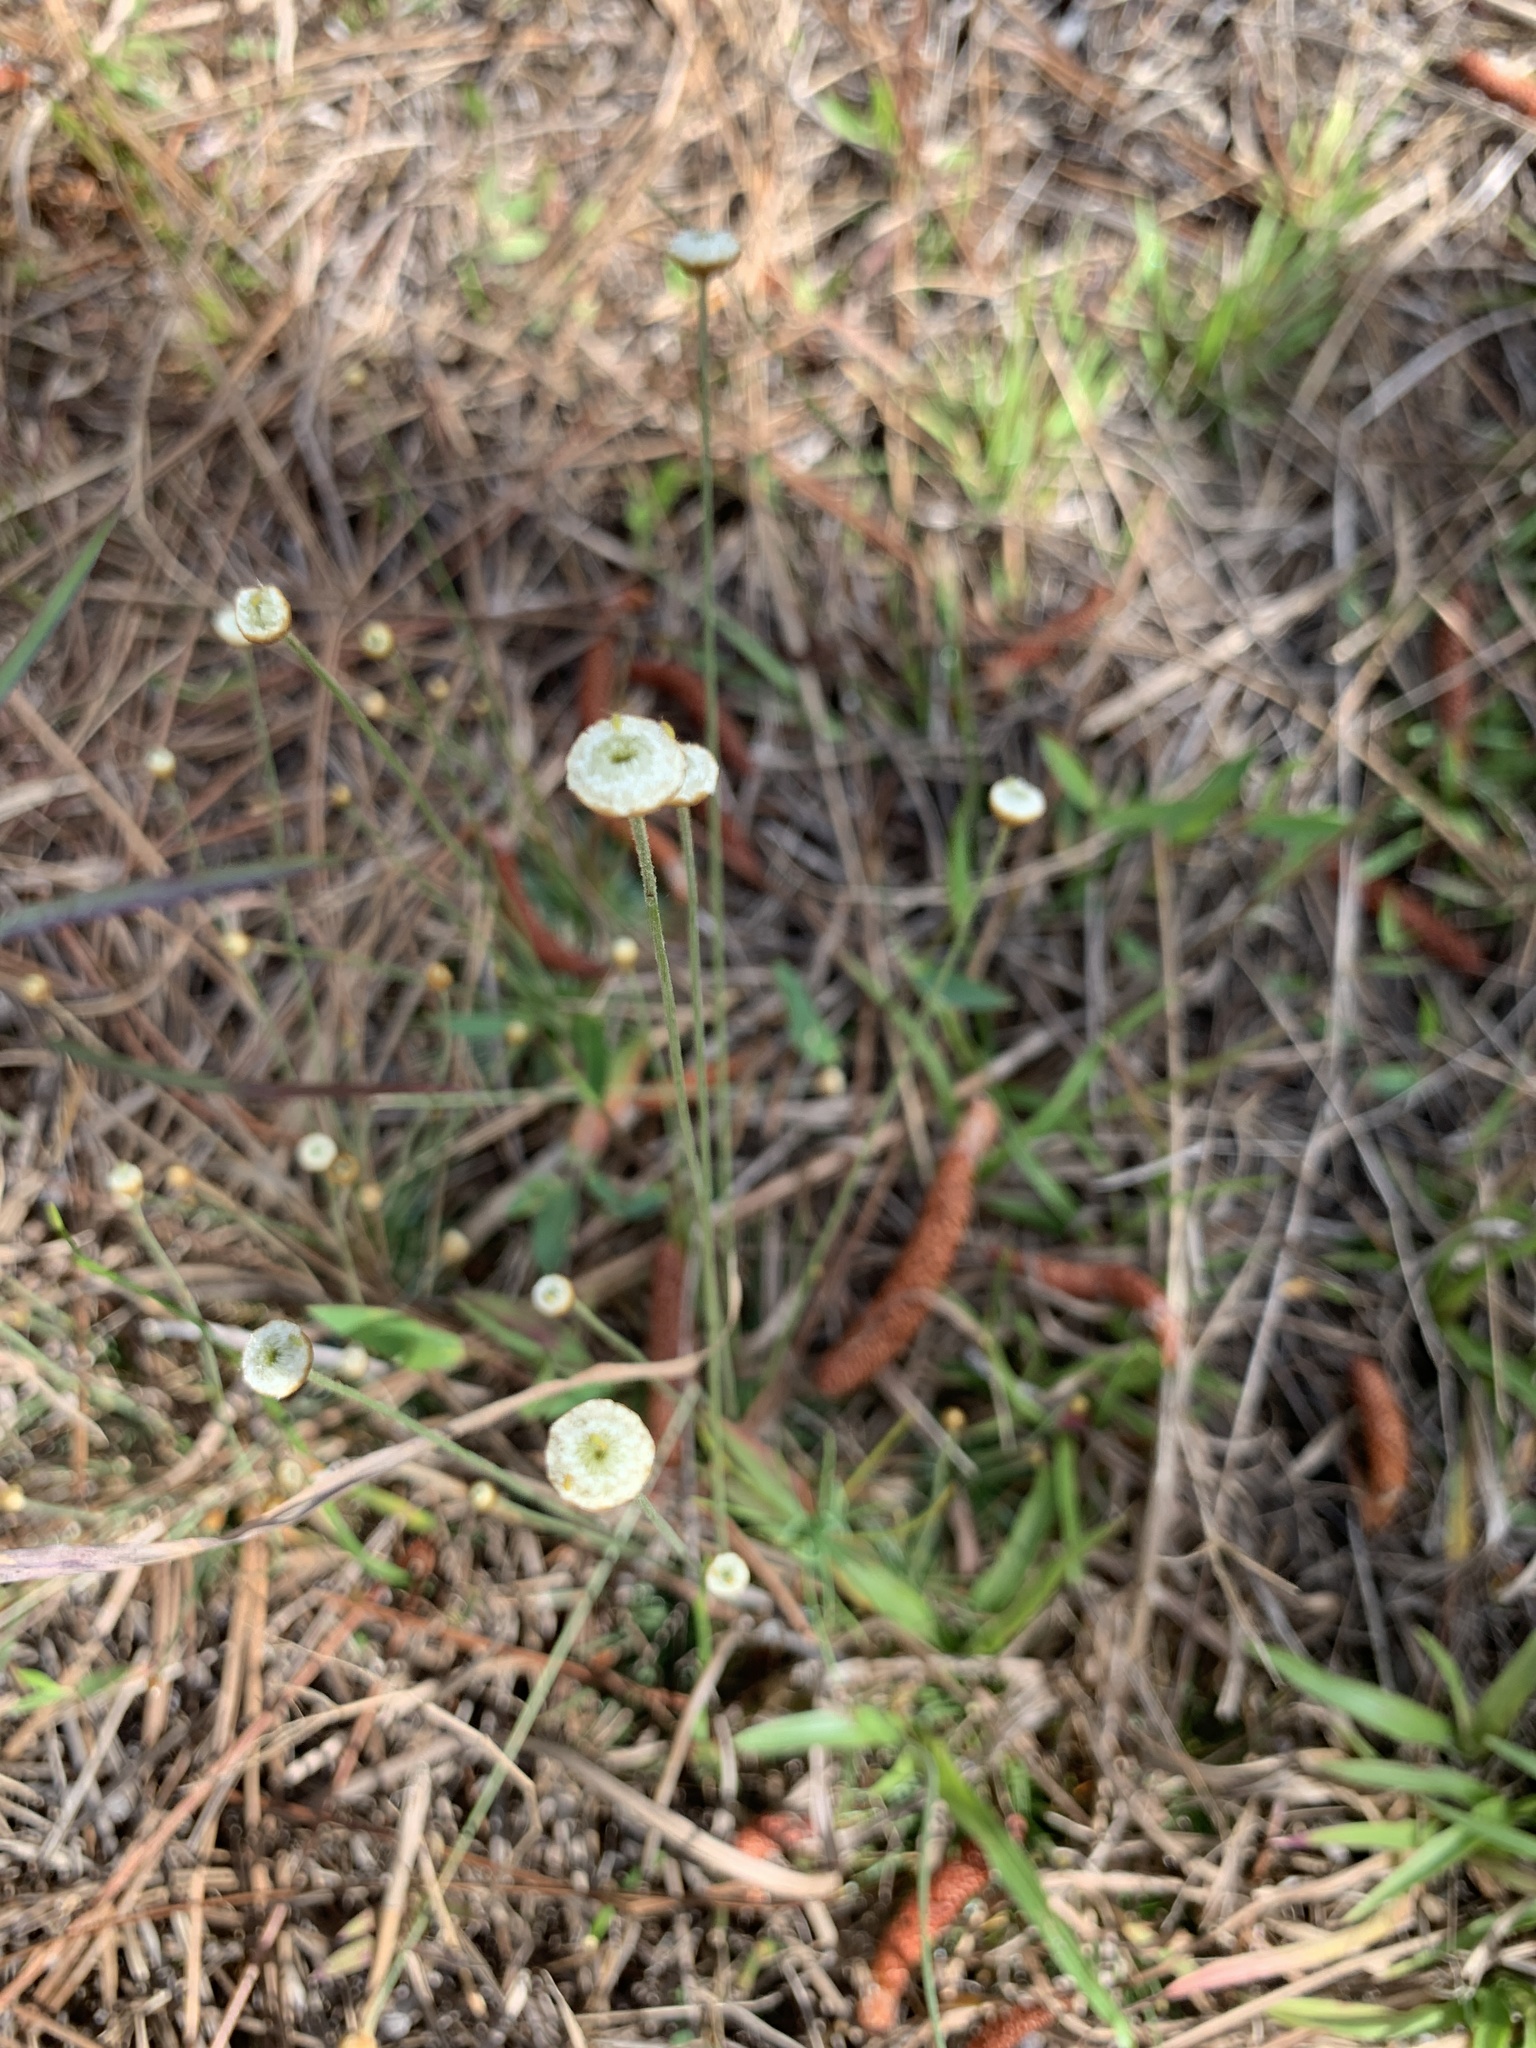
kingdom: Plantae
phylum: Tracheophyta
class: Liliopsida
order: Poales
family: Eriocaulaceae
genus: Syngonanthus
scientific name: Syngonanthus flavidulus
